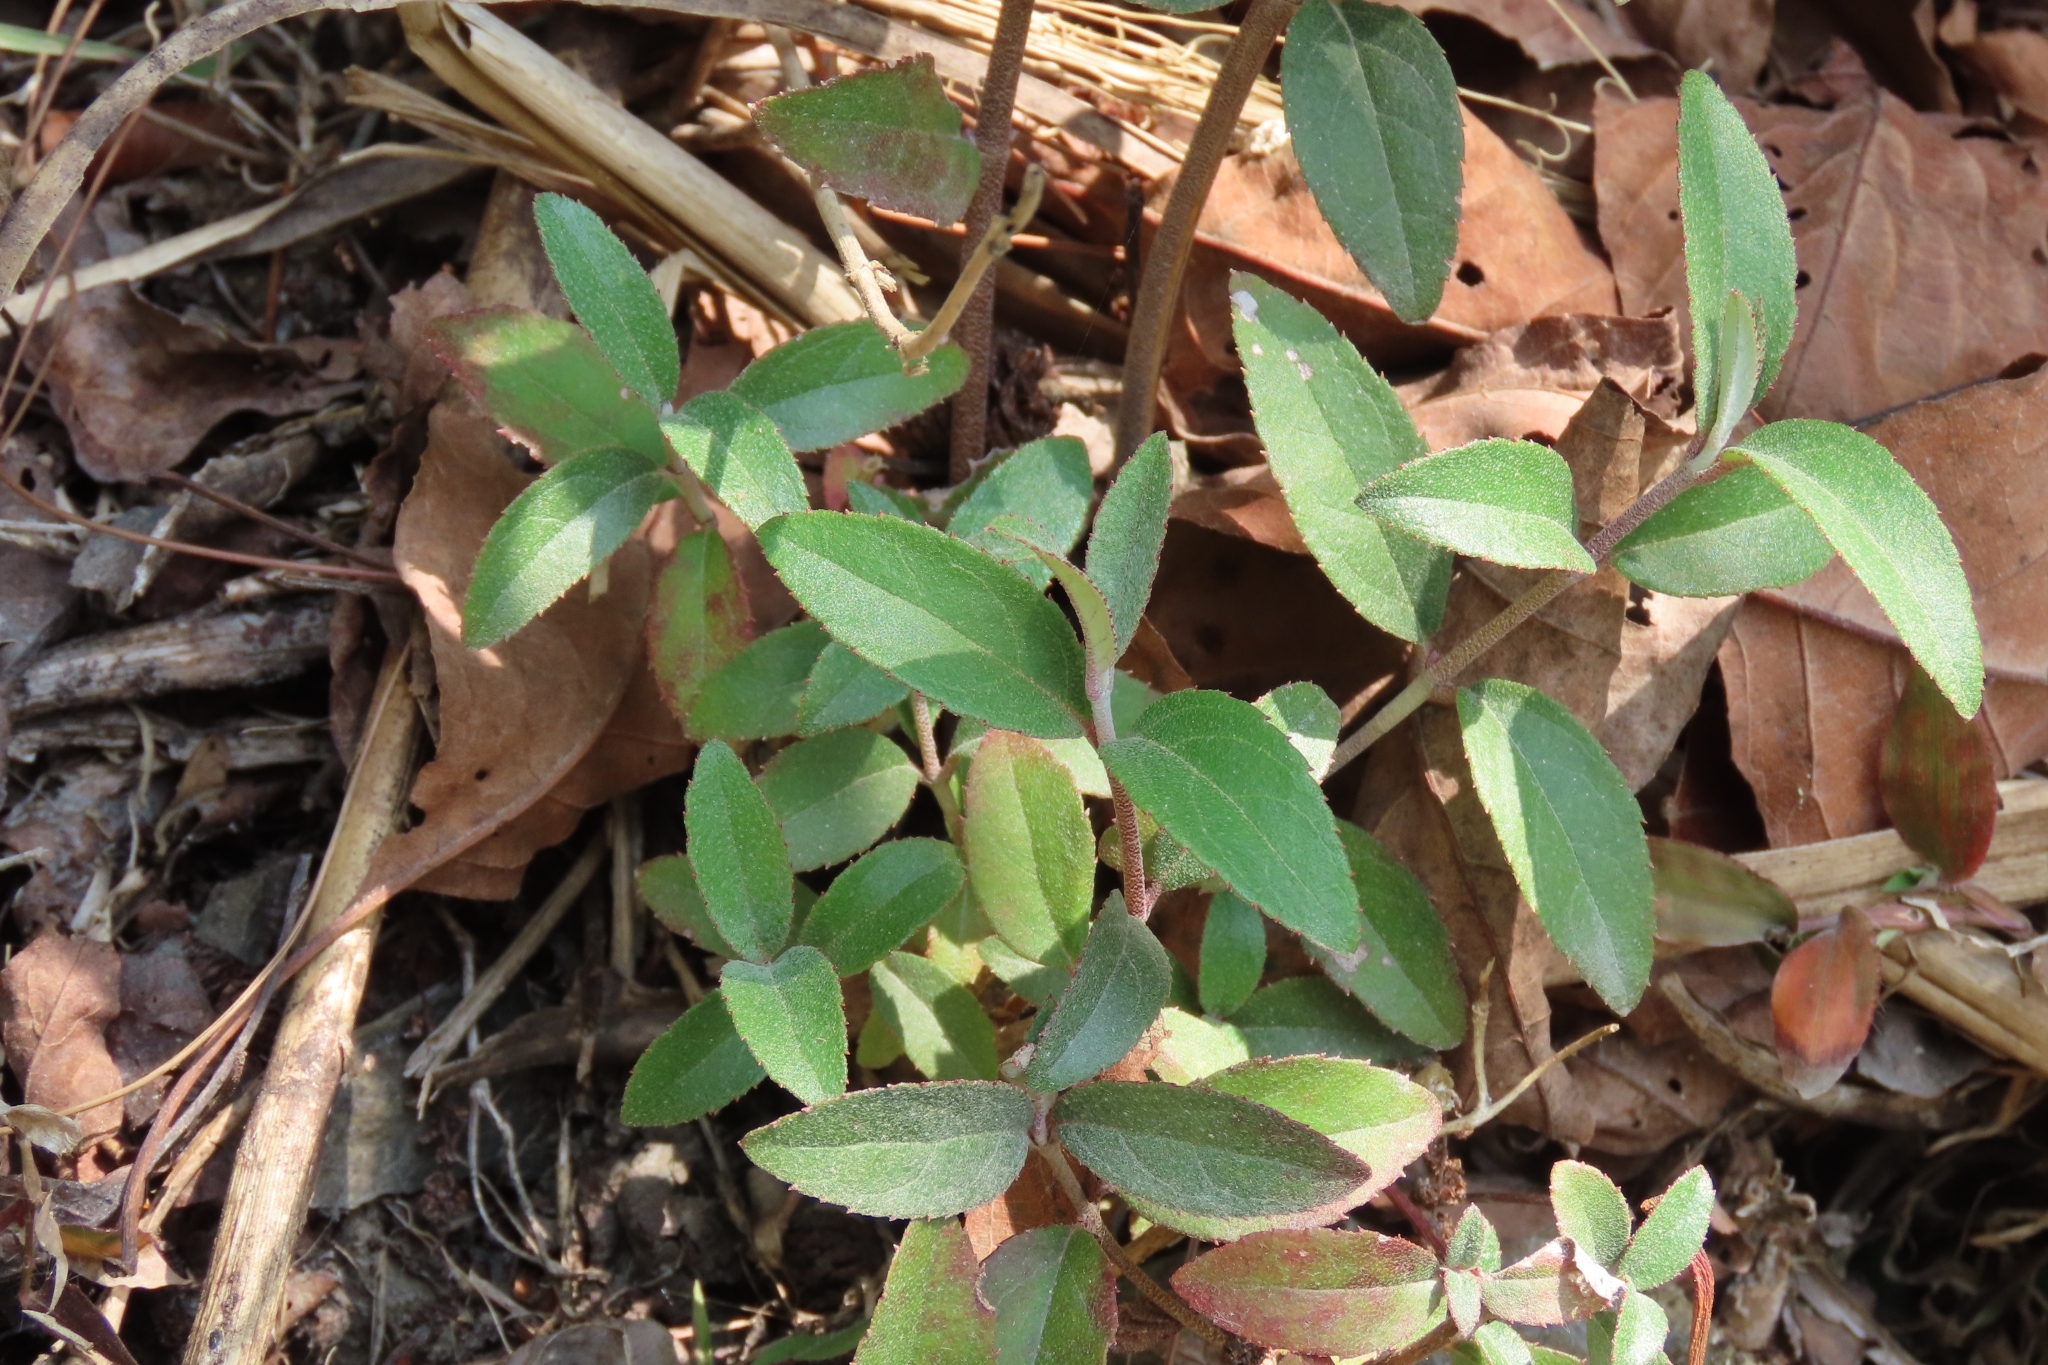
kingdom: Plantae
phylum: Tracheophyta
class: Magnoliopsida
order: Cornales
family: Hydrangeaceae
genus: Deutzia
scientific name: Deutzia pulchra
